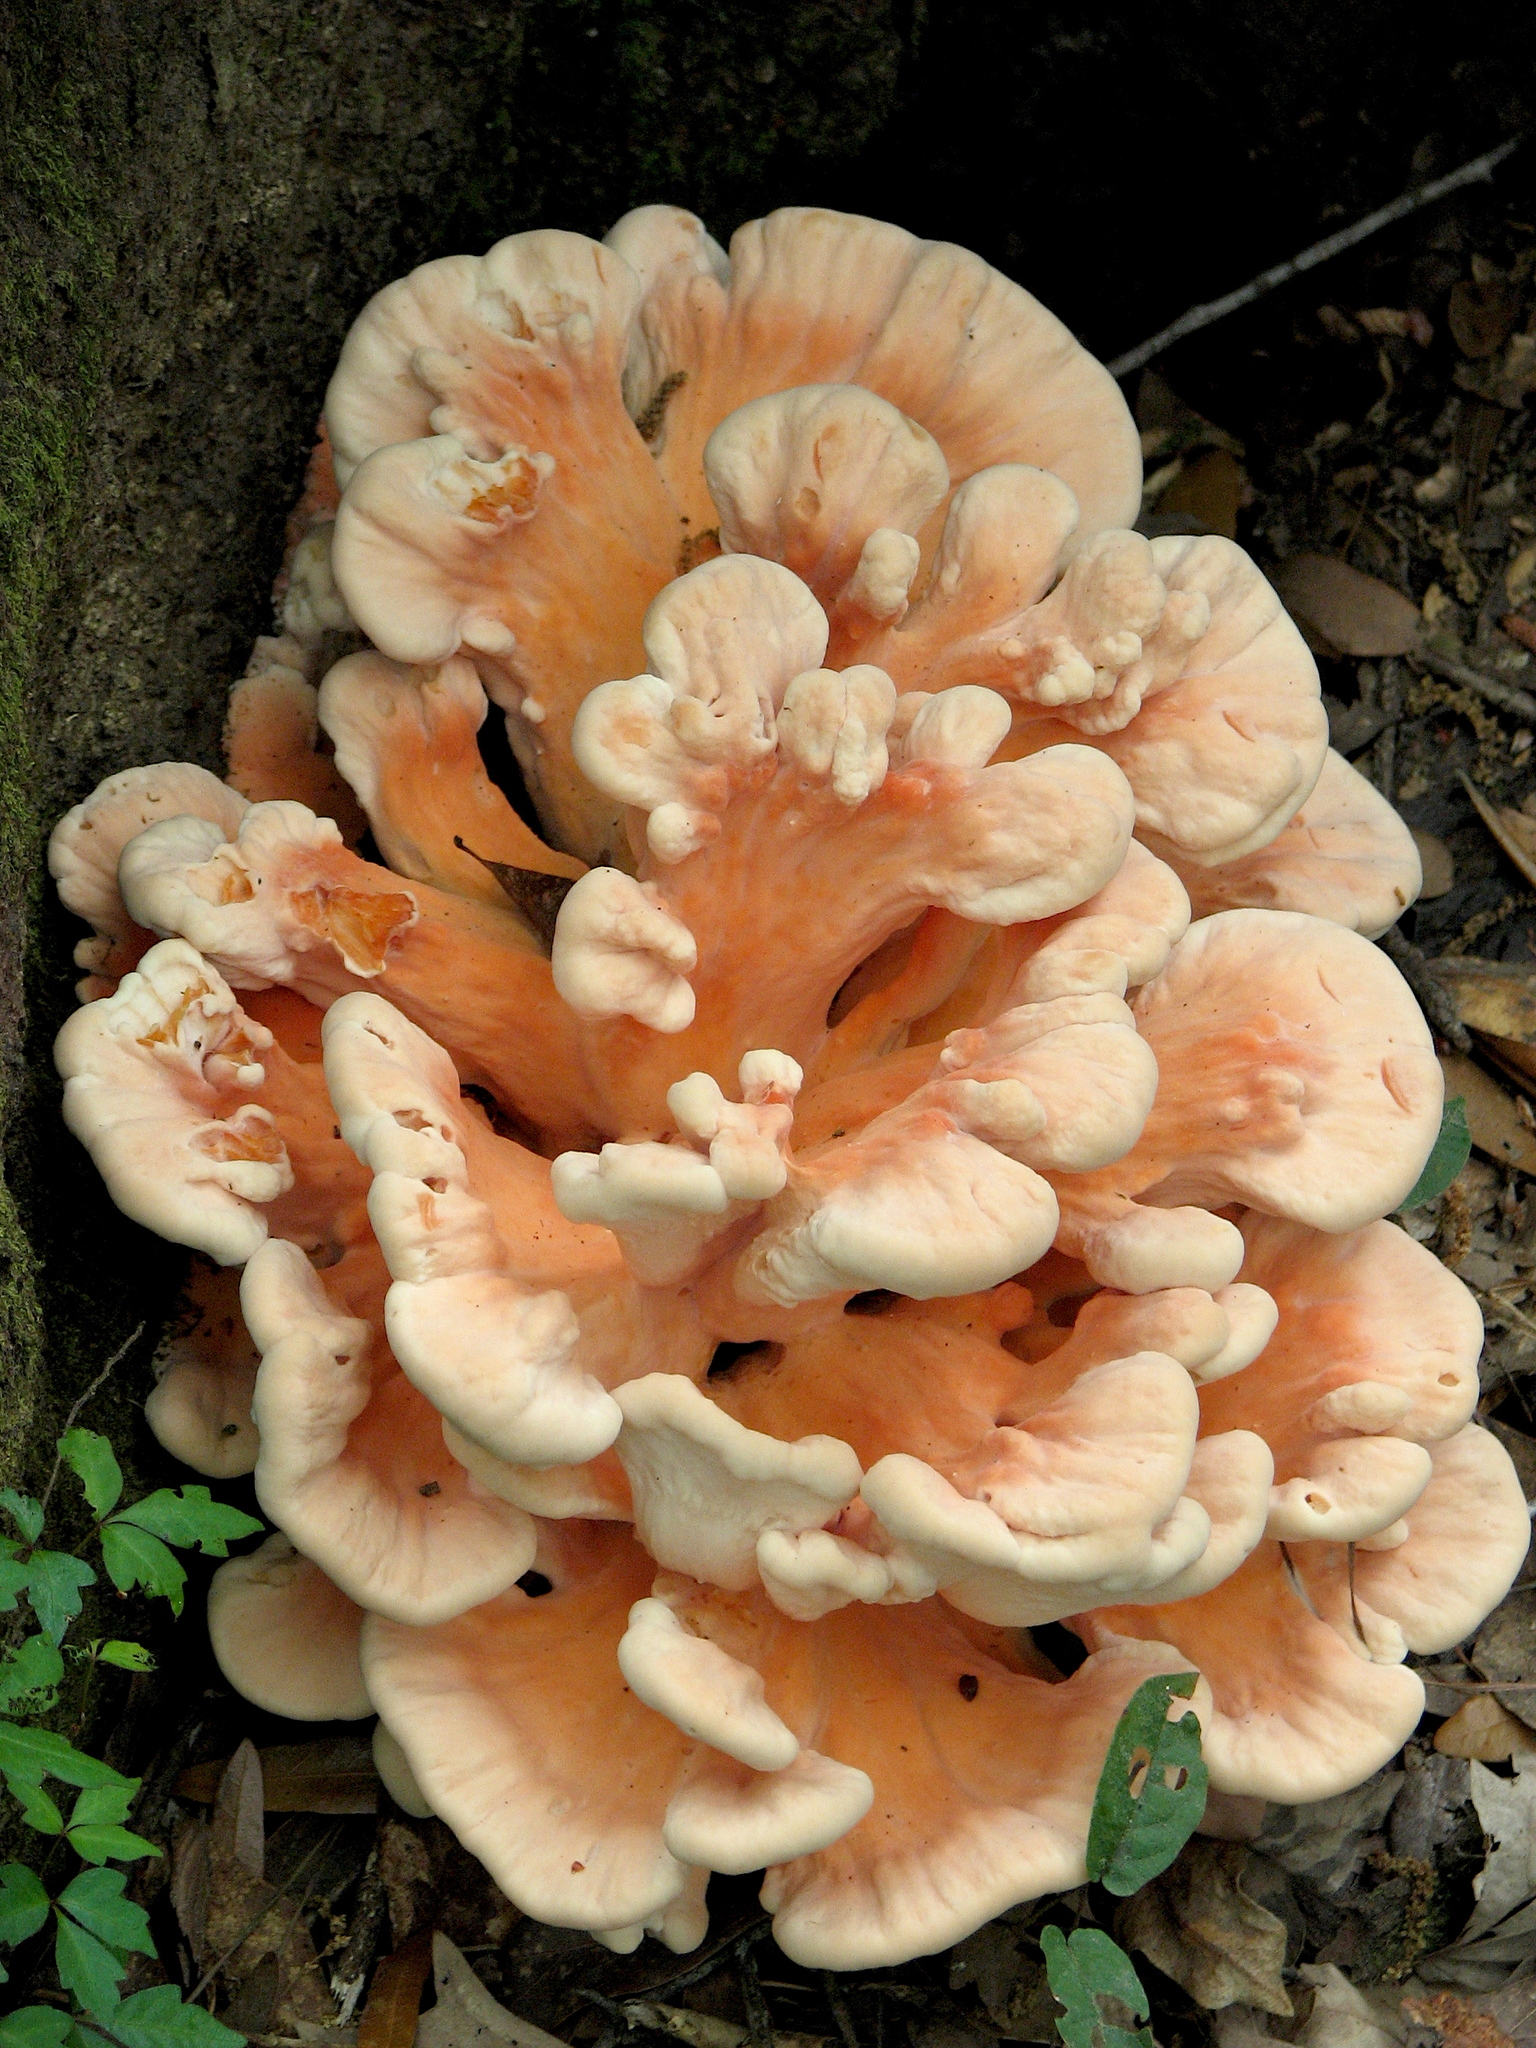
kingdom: Fungi
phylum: Basidiomycota
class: Agaricomycetes
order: Polyporales
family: Laetiporaceae
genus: Laetiporus
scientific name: Laetiporus sulphureus
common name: Chicken of the woods
